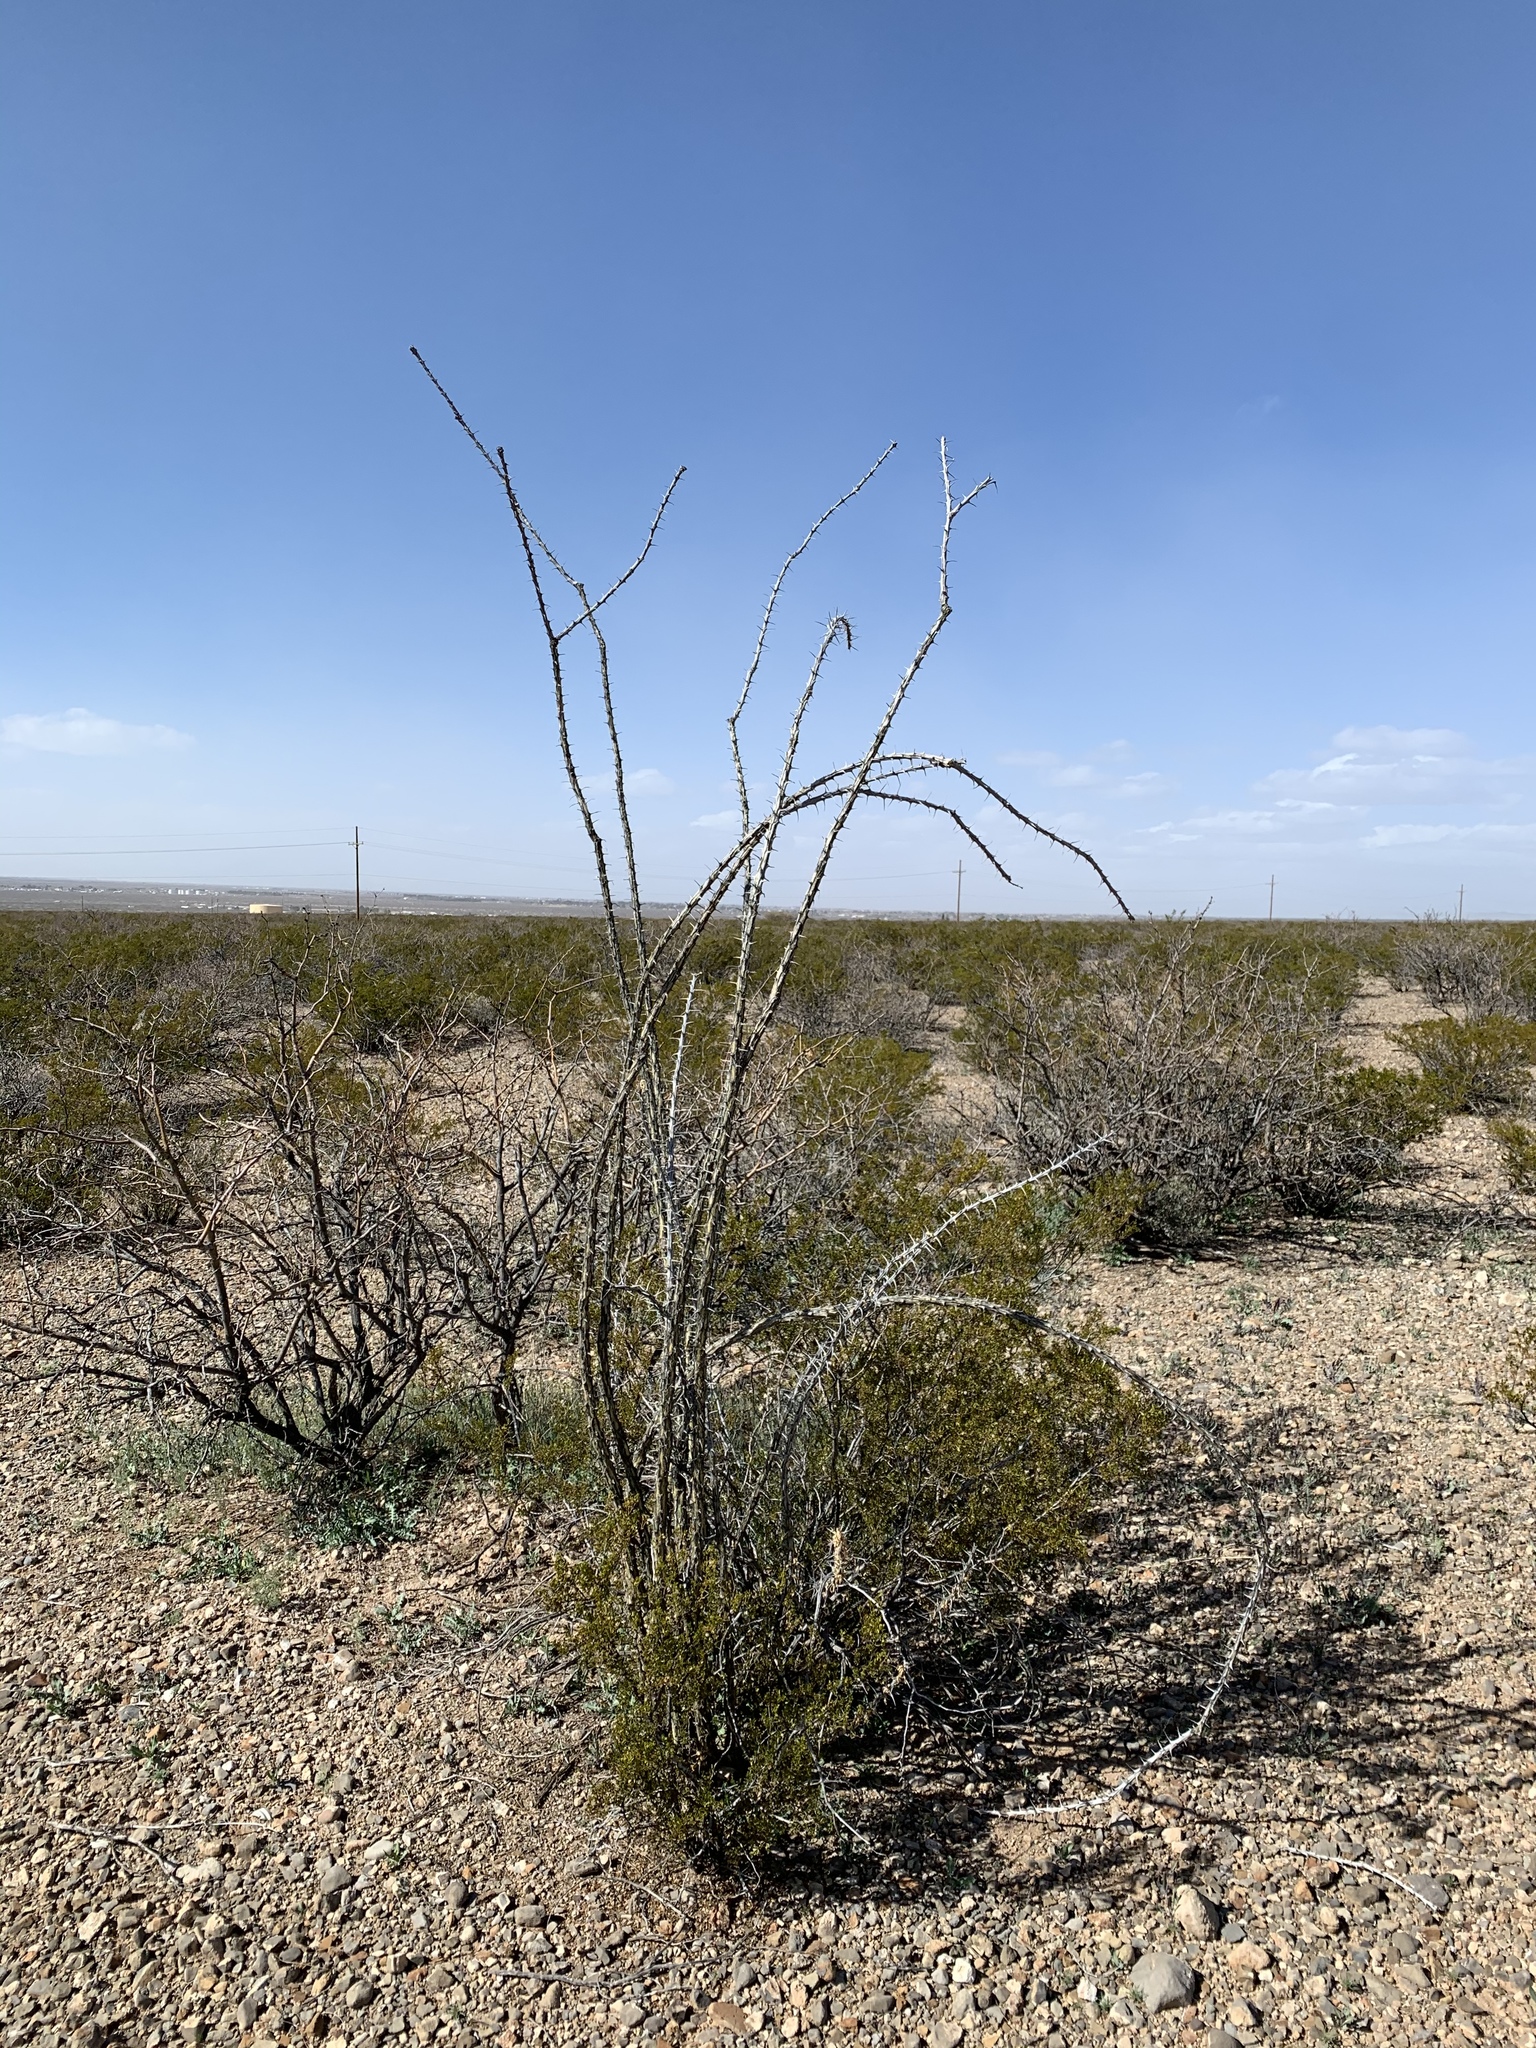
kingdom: Plantae
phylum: Tracheophyta
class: Magnoliopsida
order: Ericales
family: Fouquieriaceae
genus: Fouquieria
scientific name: Fouquieria splendens
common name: Vine-cactus
